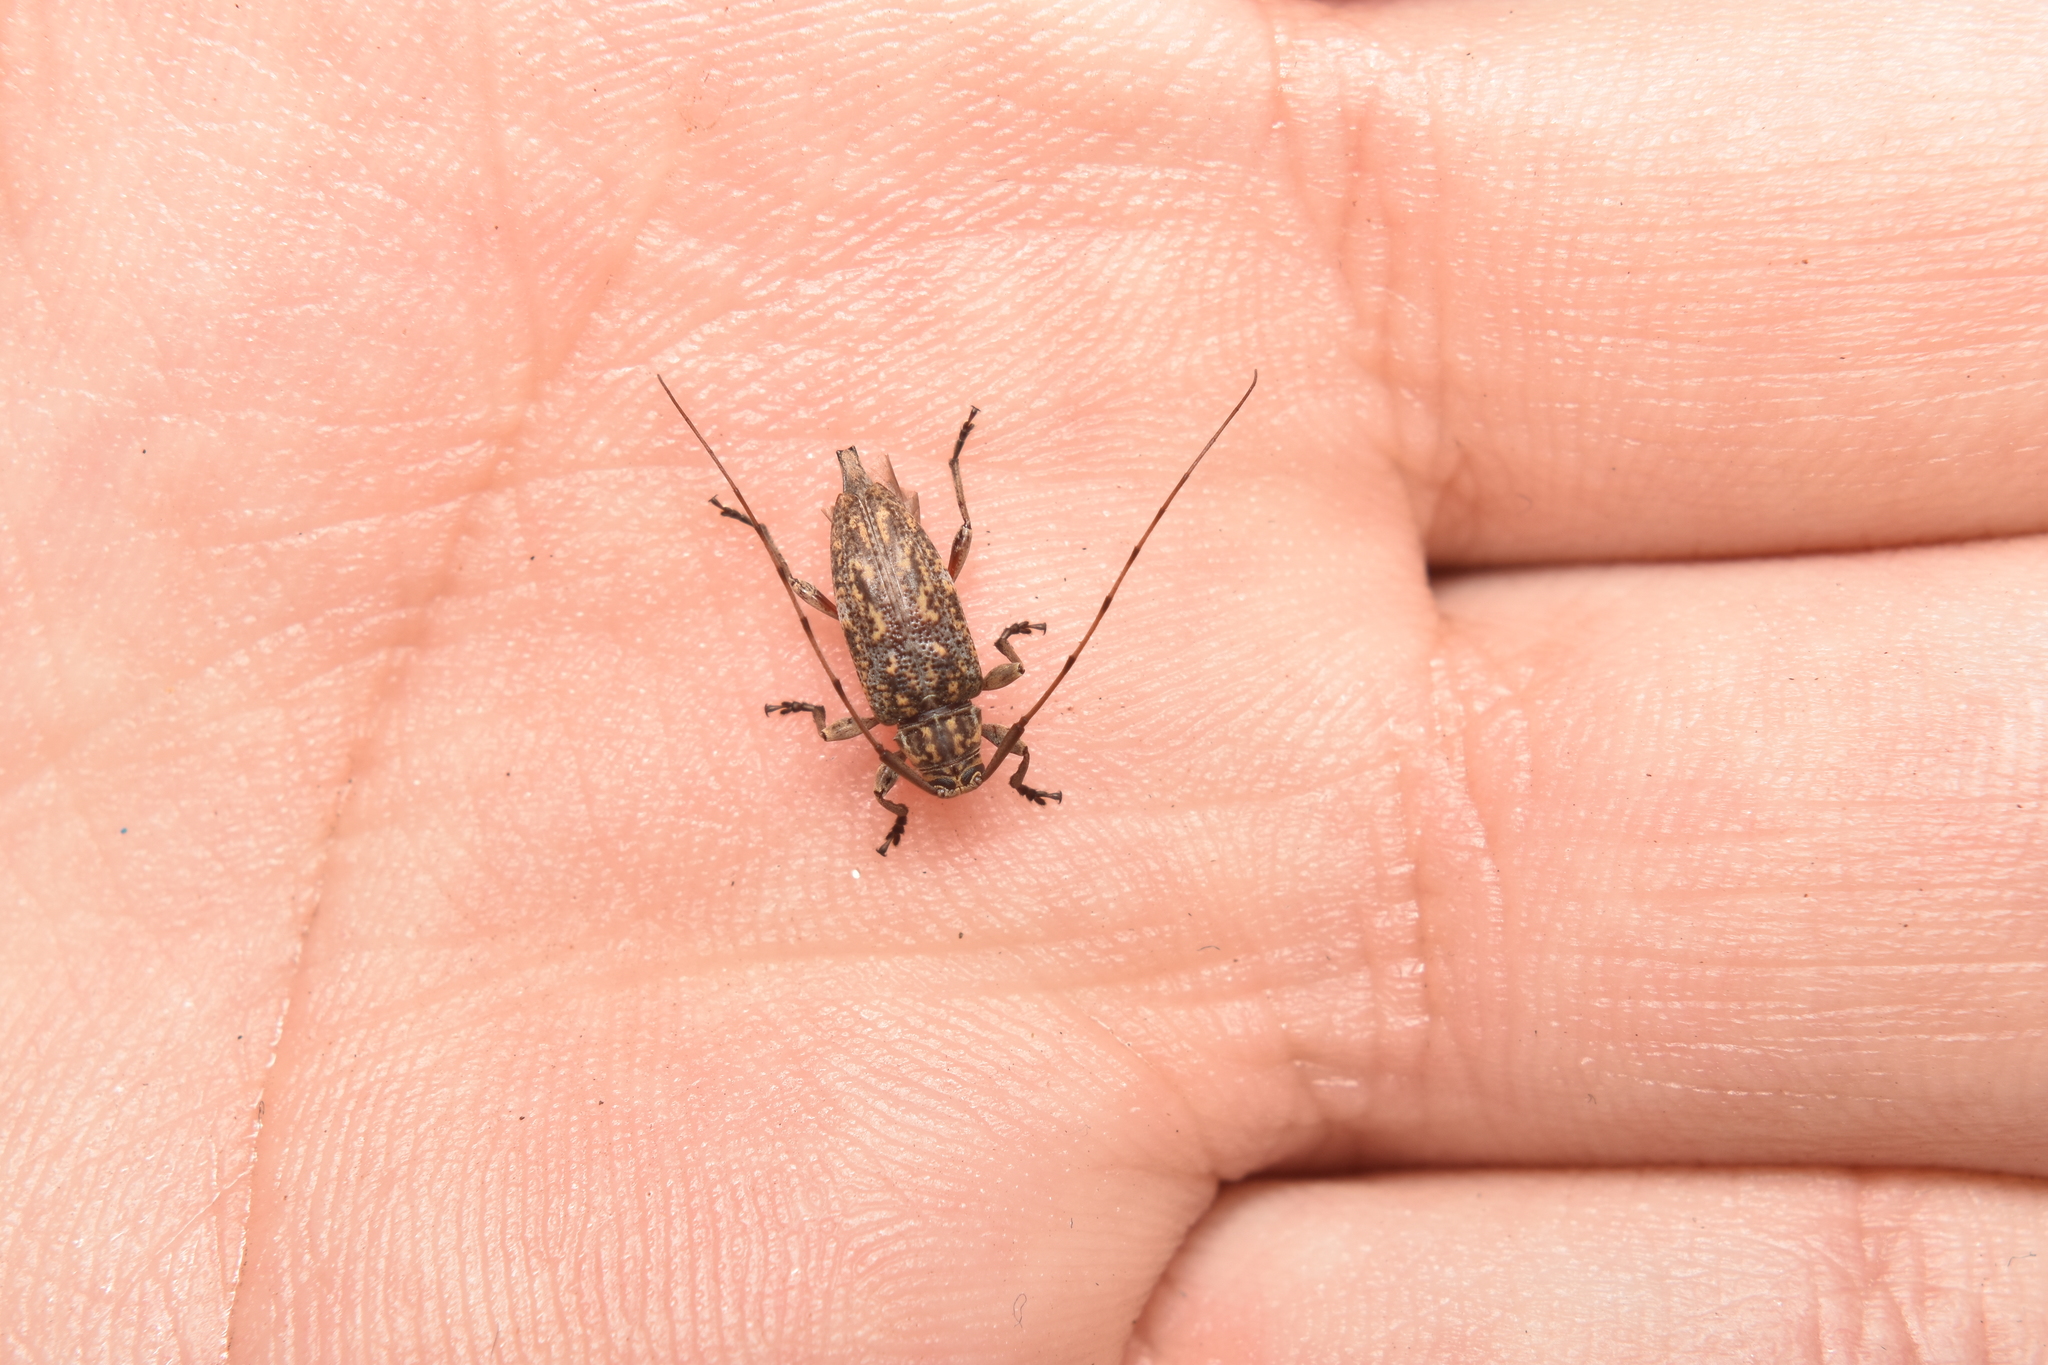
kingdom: Animalia
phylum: Arthropoda
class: Insecta
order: Coleoptera
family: Cerambycidae
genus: Atrypanius
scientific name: Atrypanius haldemani
